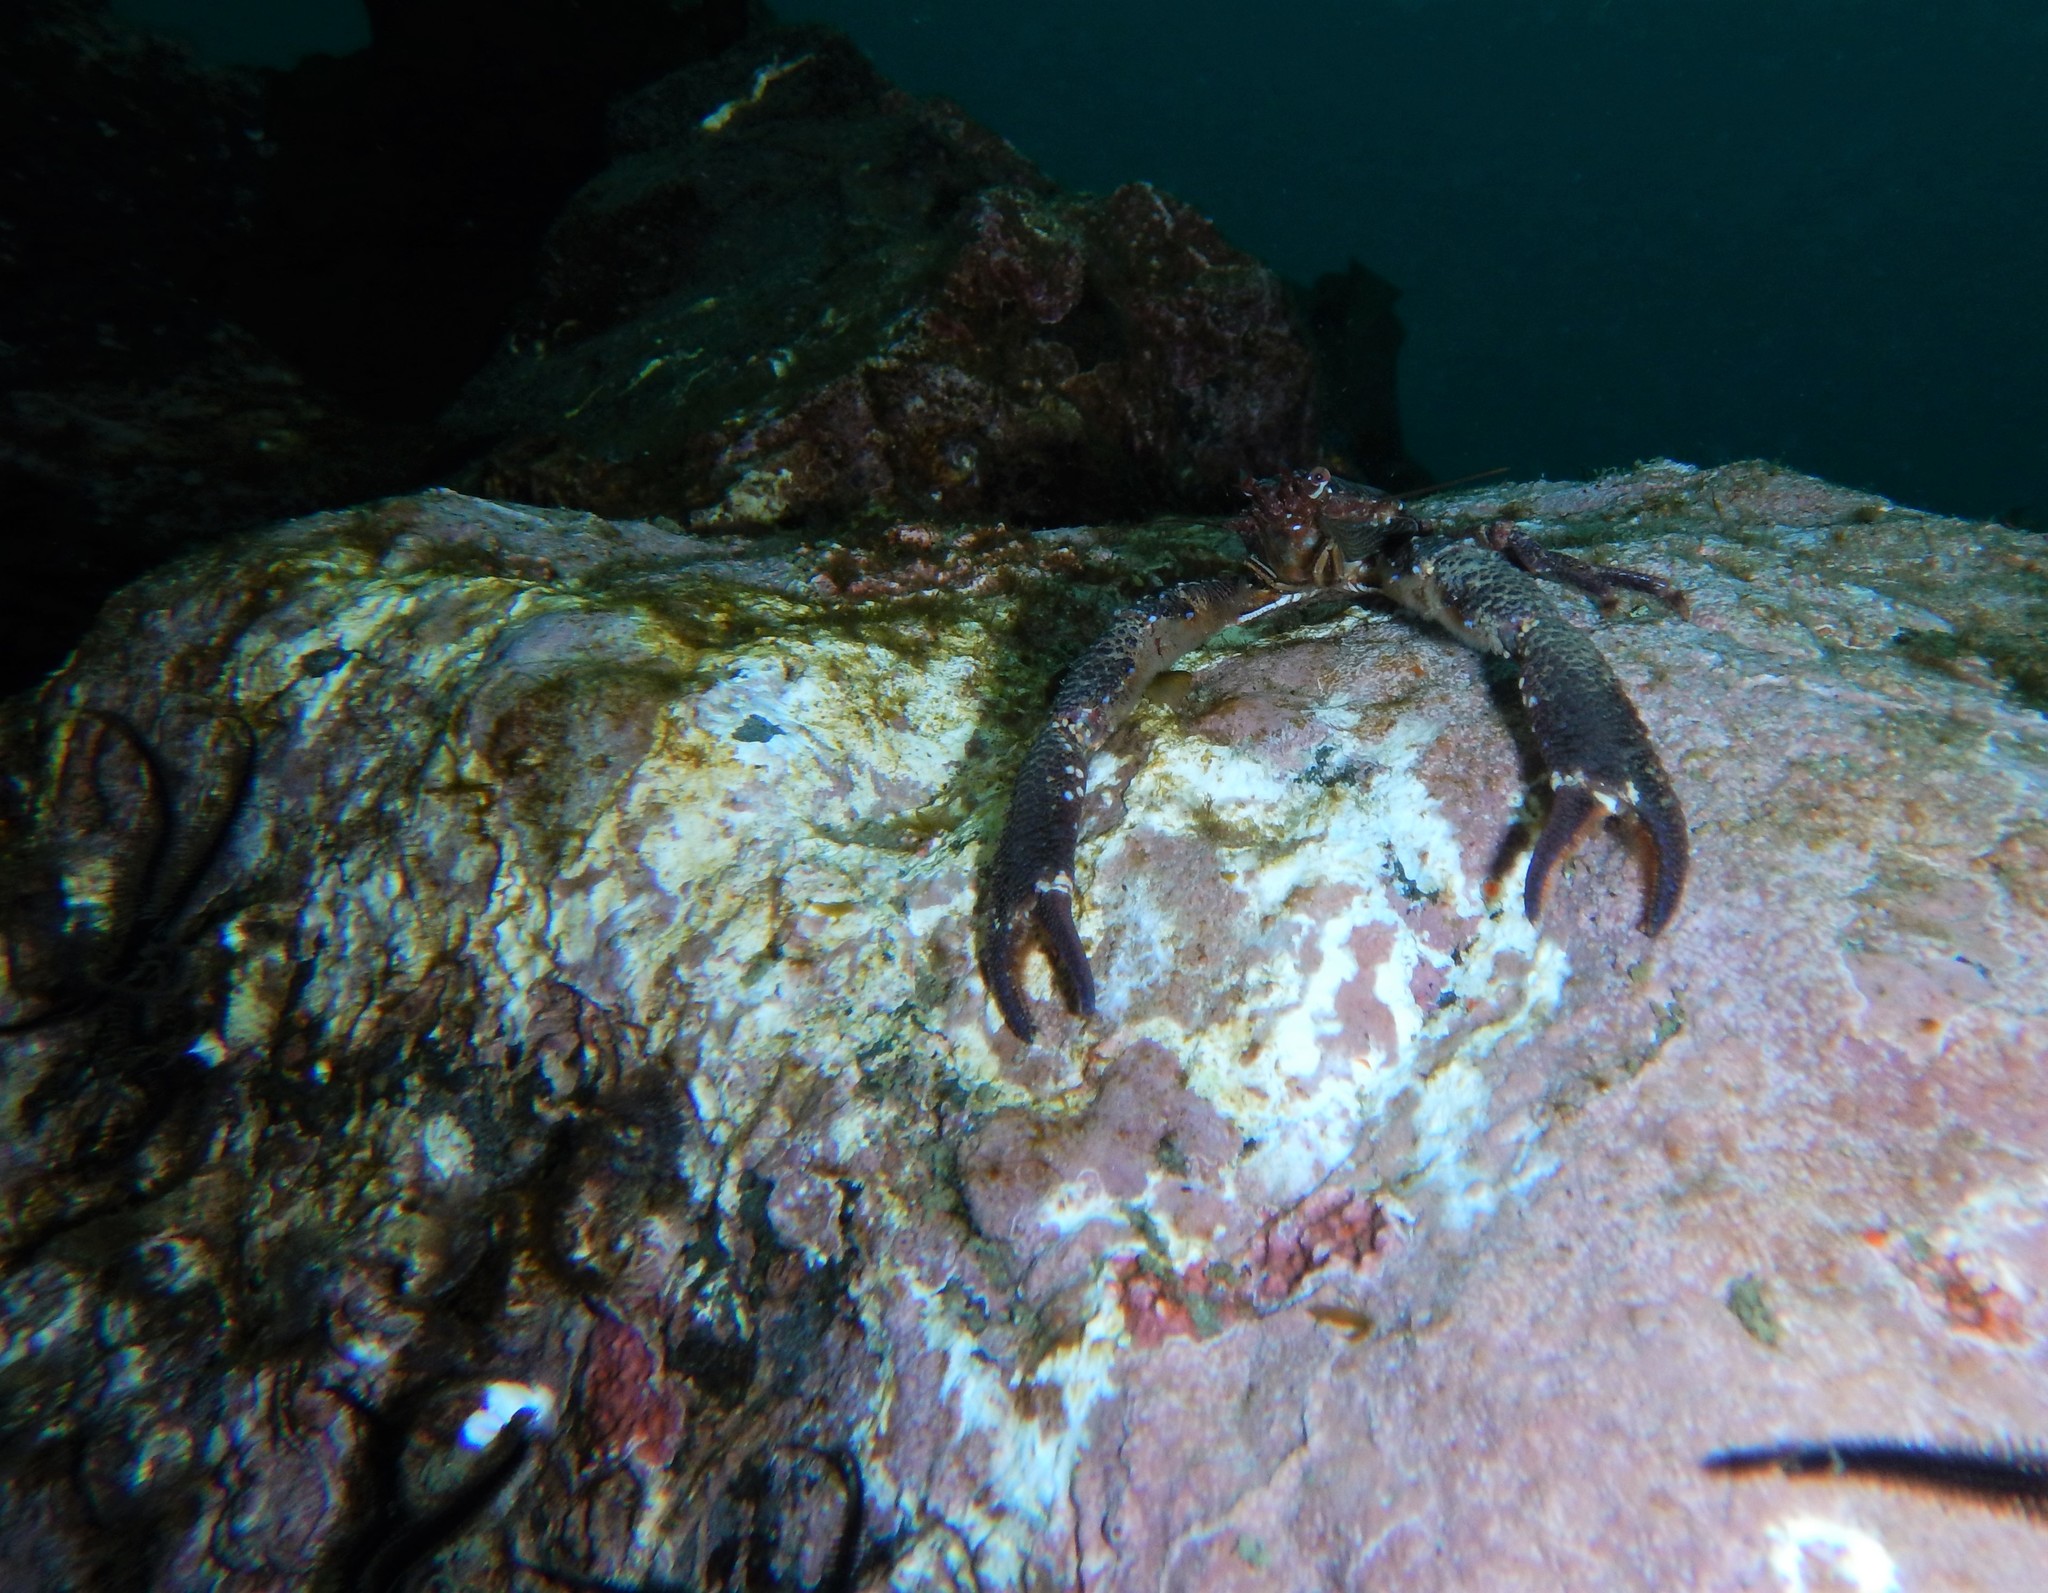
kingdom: Animalia
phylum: Arthropoda
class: Malacostraca
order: Decapoda
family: Galatheidae
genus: Galathea
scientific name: Galathea squamifera
